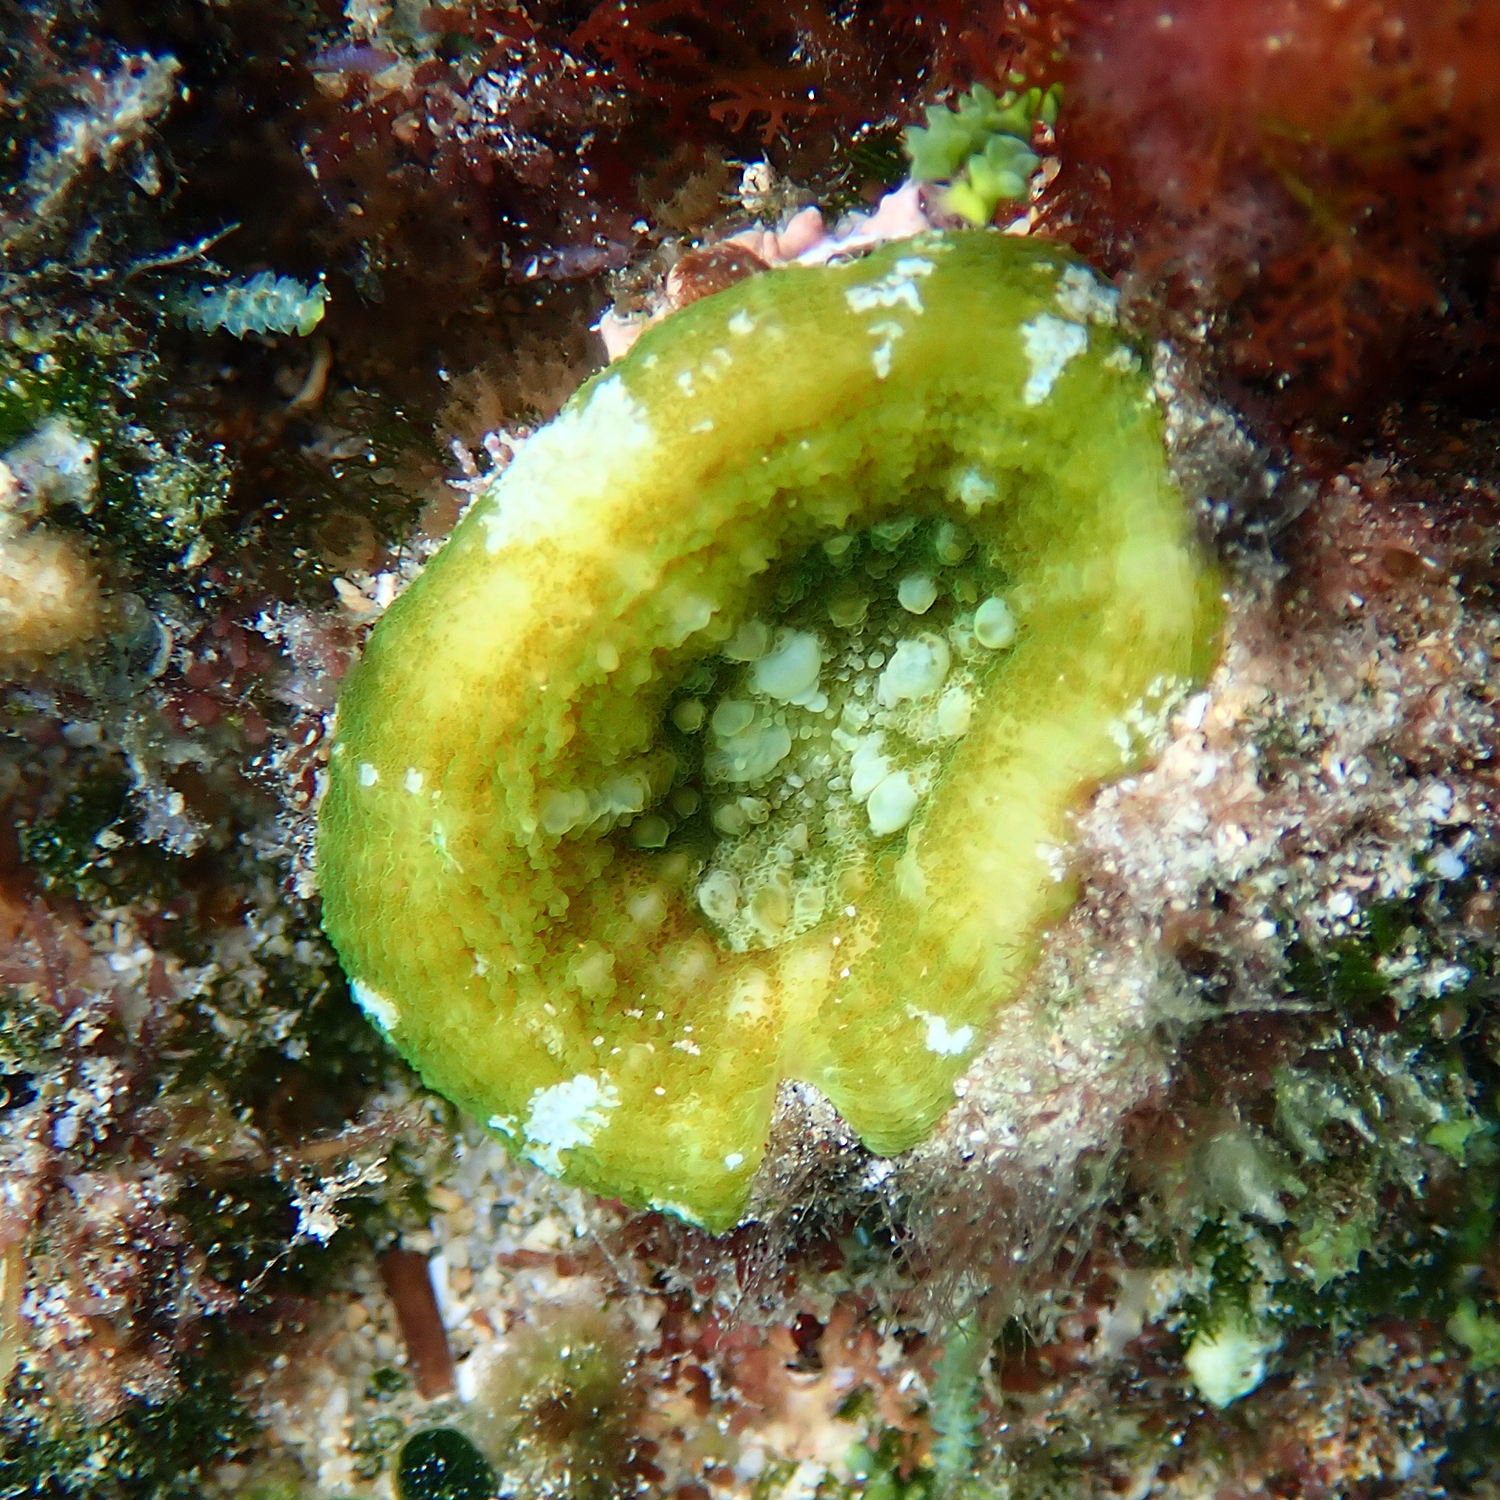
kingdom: Animalia
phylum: Cnidaria
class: Anthozoa
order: Scleractinia
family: Lobophylliidae
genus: Homophyllia
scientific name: Homophyllia australis
